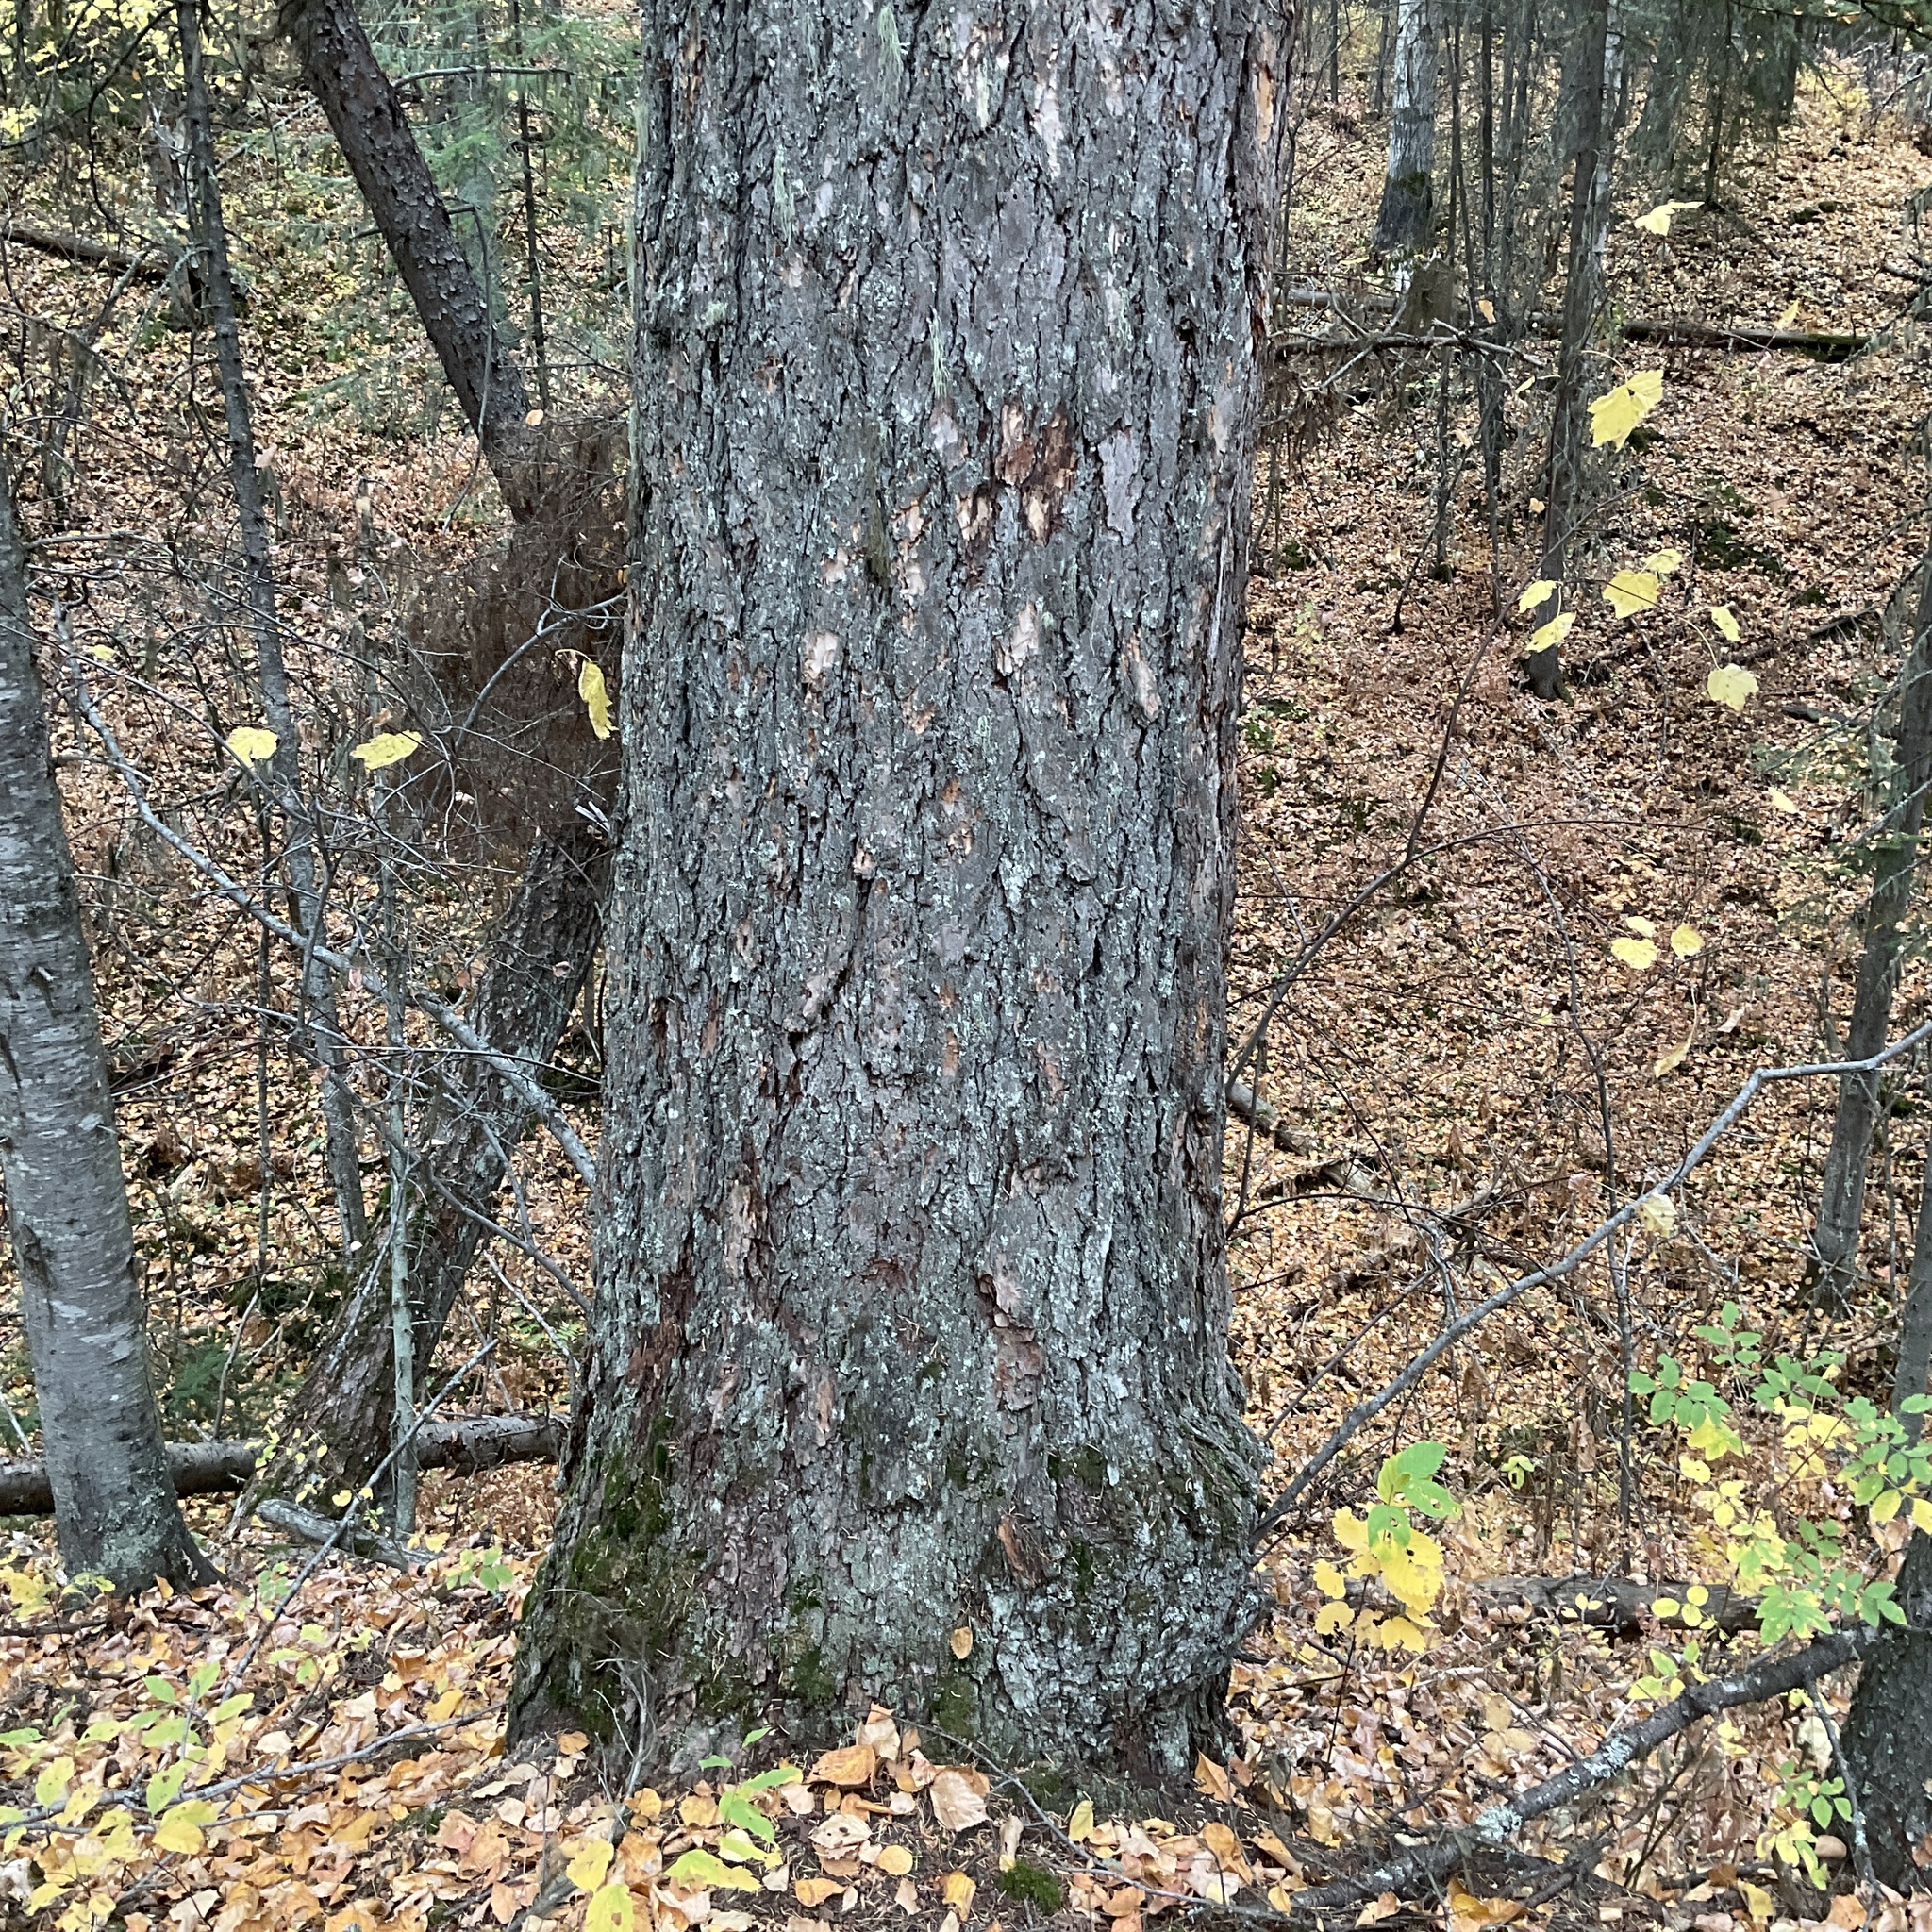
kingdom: Plantae
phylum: Tracheophyta
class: Pinopsida
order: Pinales
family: Pinaceae
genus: Pseudotsuga
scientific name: Pseudotsuga menziesii
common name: Douglas fir
